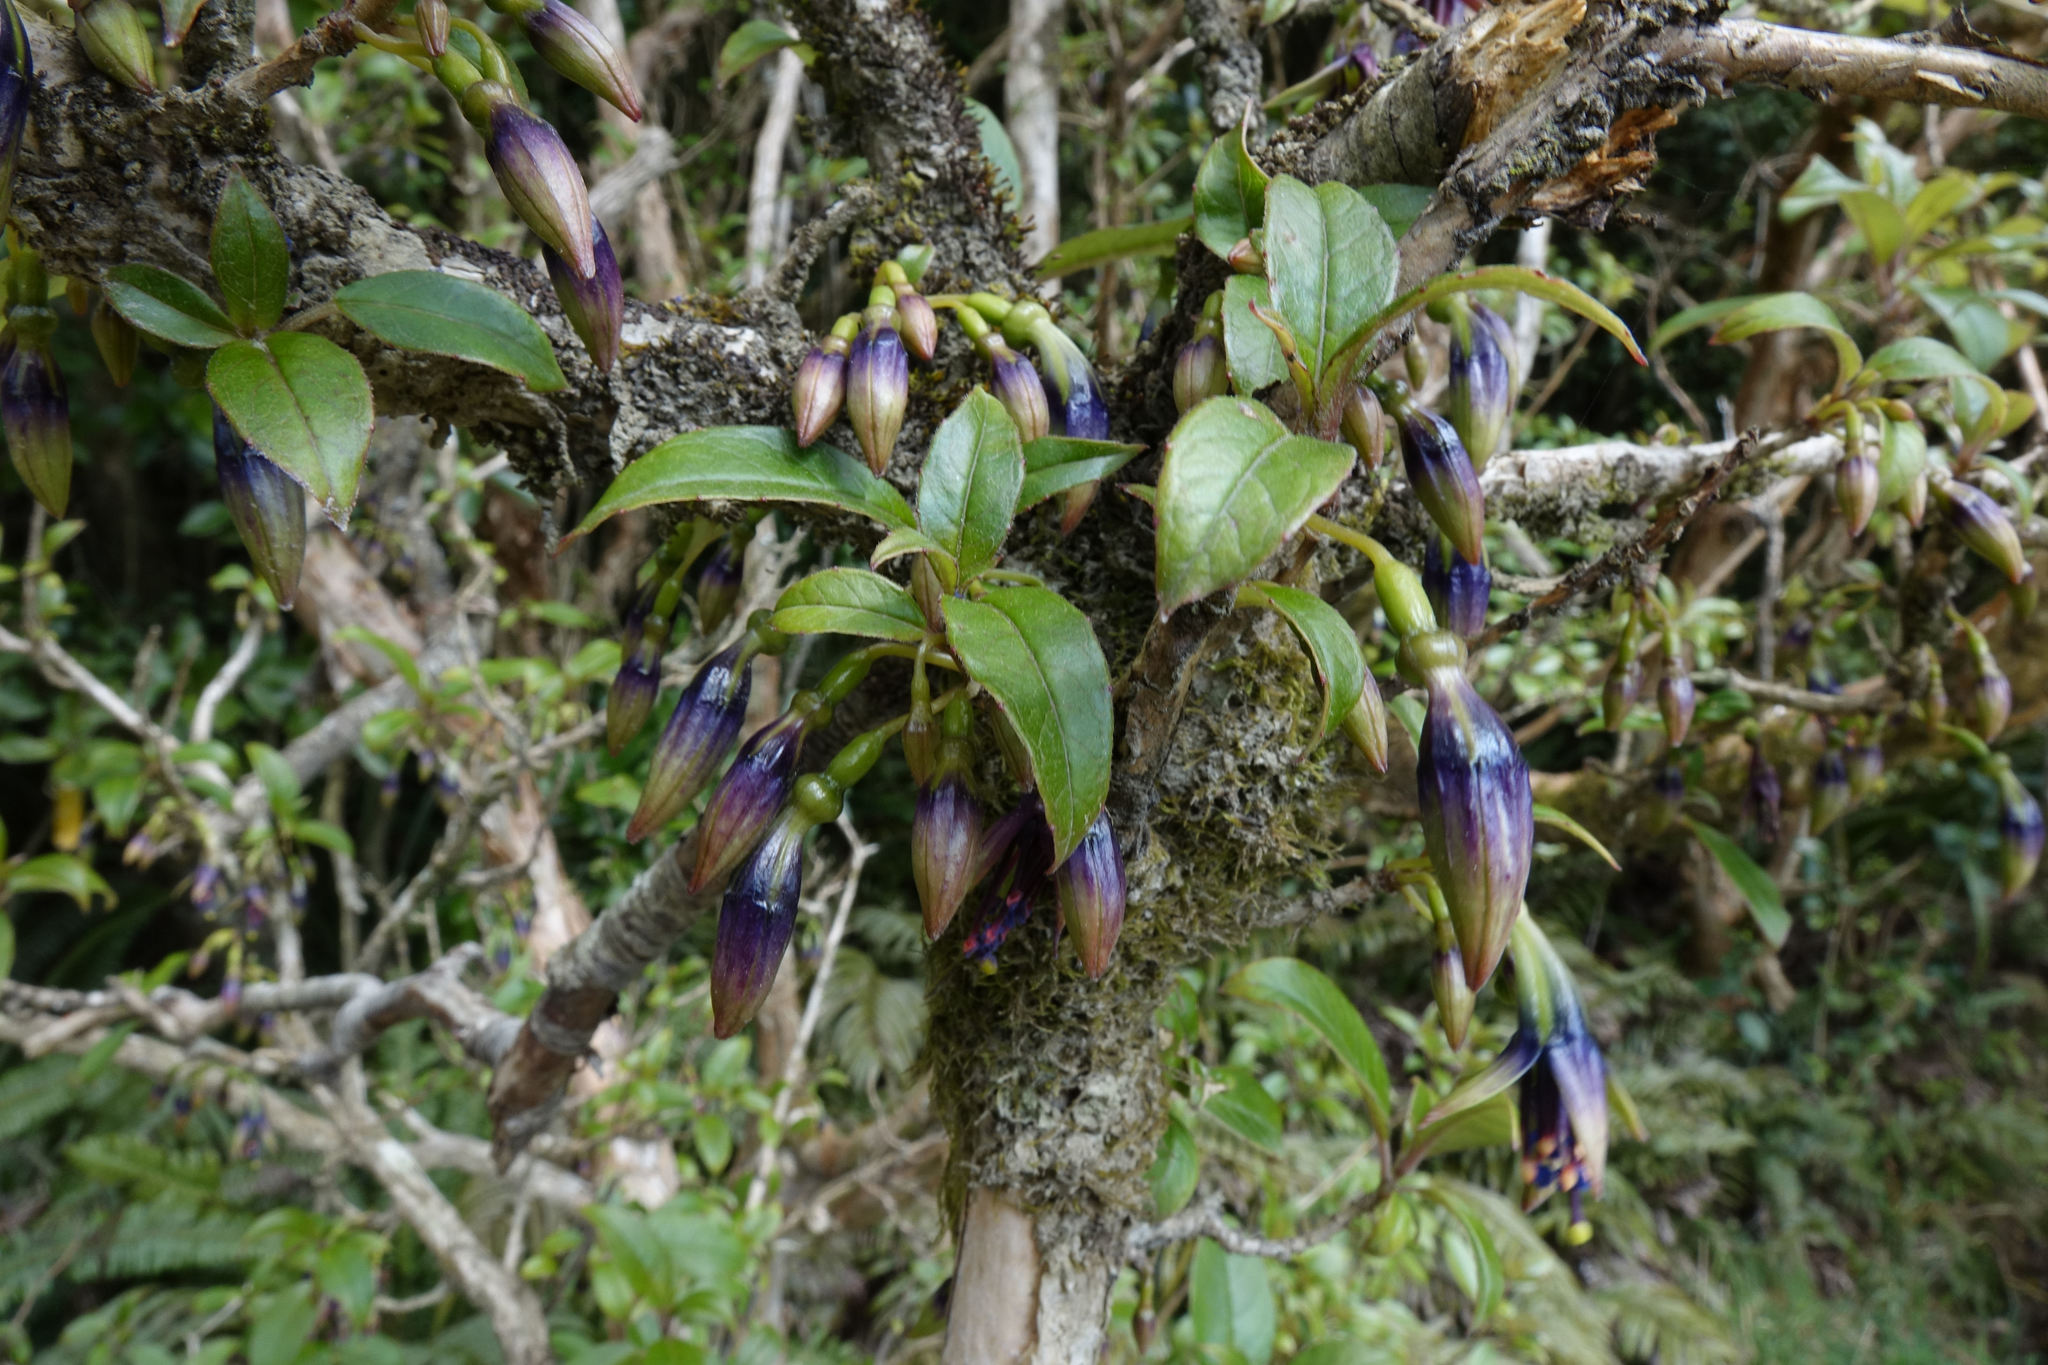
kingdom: Plantae
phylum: Tracheophyta
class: Magnoliopsida
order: Myrtales
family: Onagraceae
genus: Fuchsia
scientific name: Fuchsia excorticata
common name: Tree fuchsia
